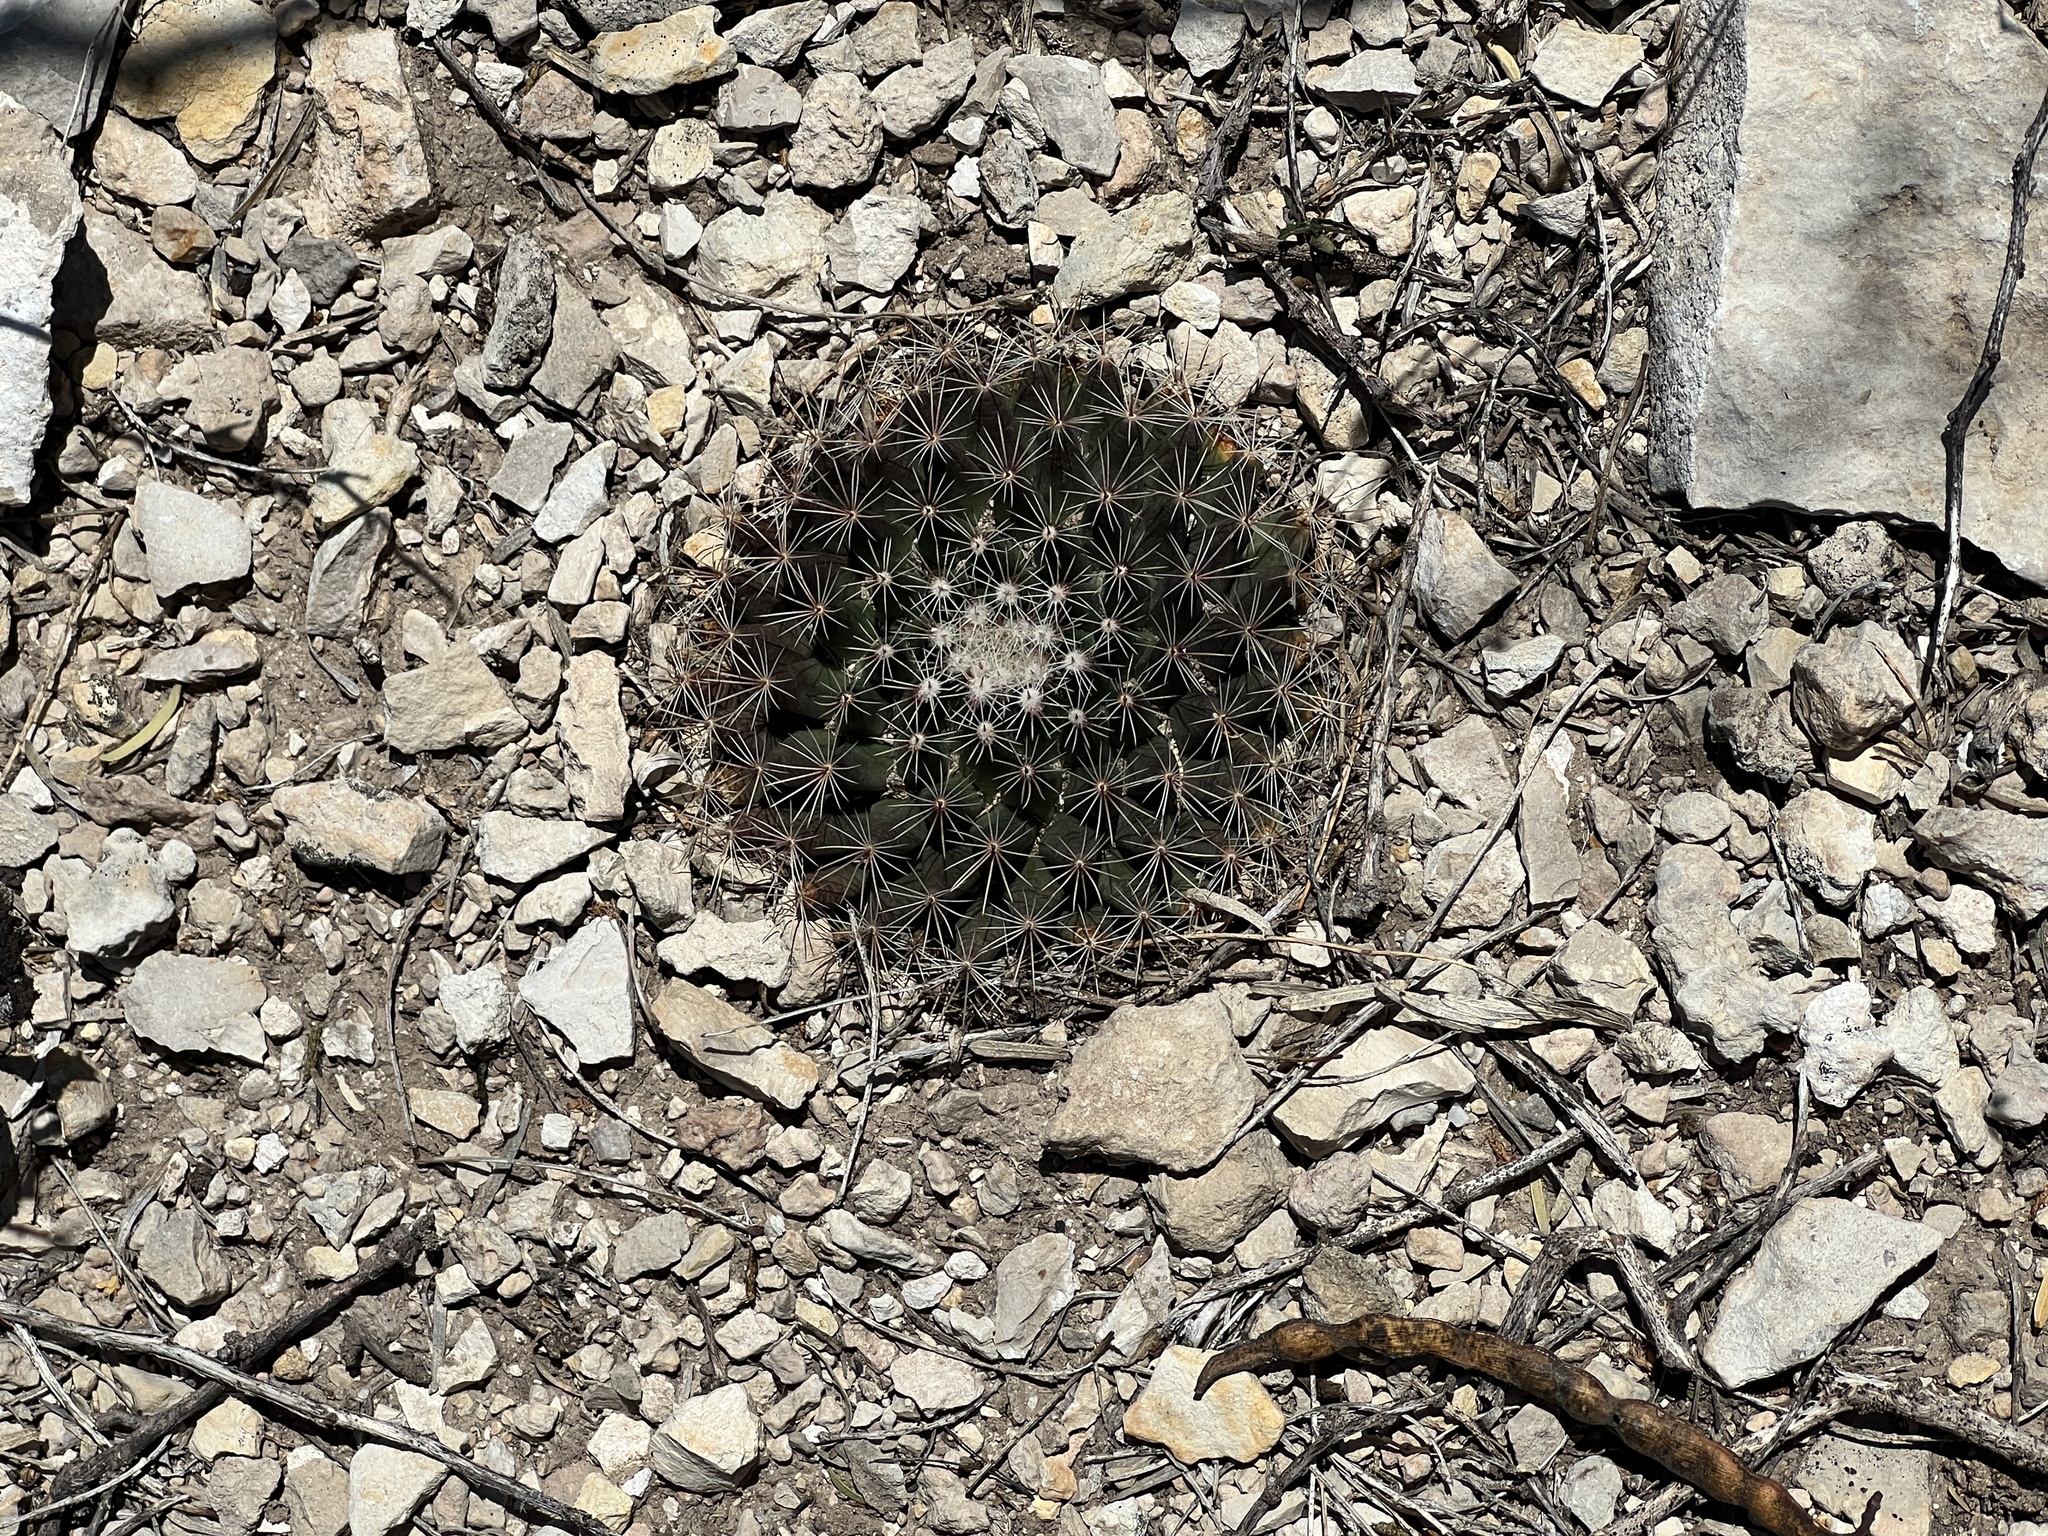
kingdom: Plantae
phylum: Tracheophyta
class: Magnoliopsida
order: Caryophyllales
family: Cactaceae
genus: Mammillaria
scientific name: Mammillaria heyderi
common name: Little nipple cactus
